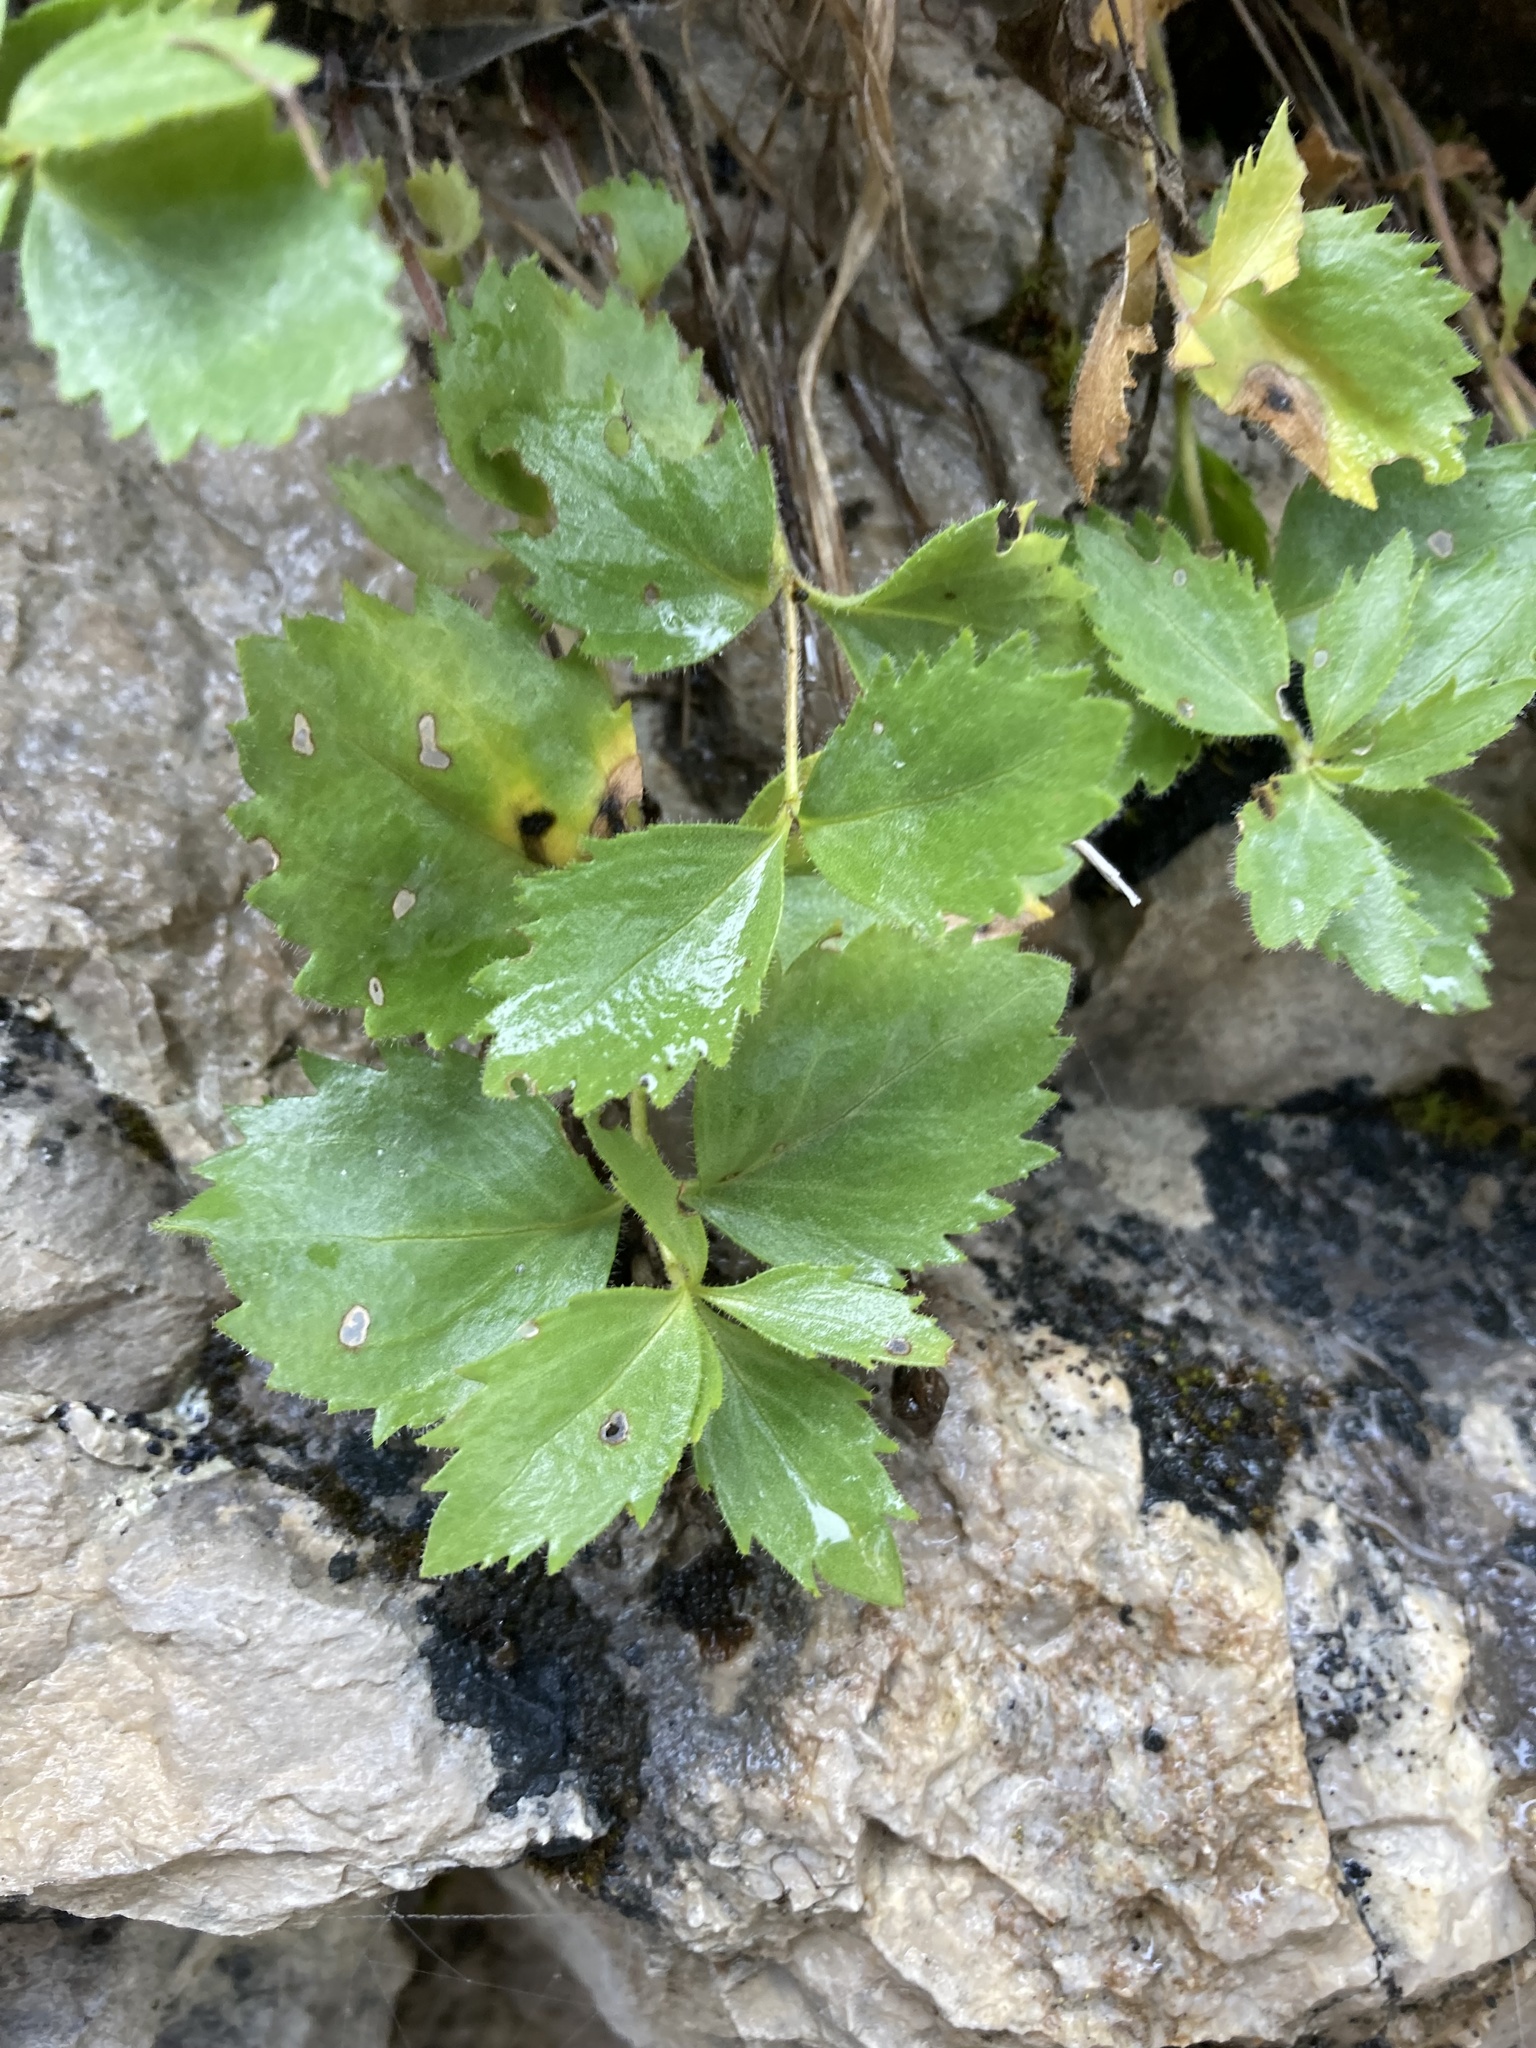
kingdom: Plantae
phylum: Tracheophyta
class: Magnoliopsida
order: Lamiales
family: Plantaginaceae
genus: Paederota
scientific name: Paederota bonarota
